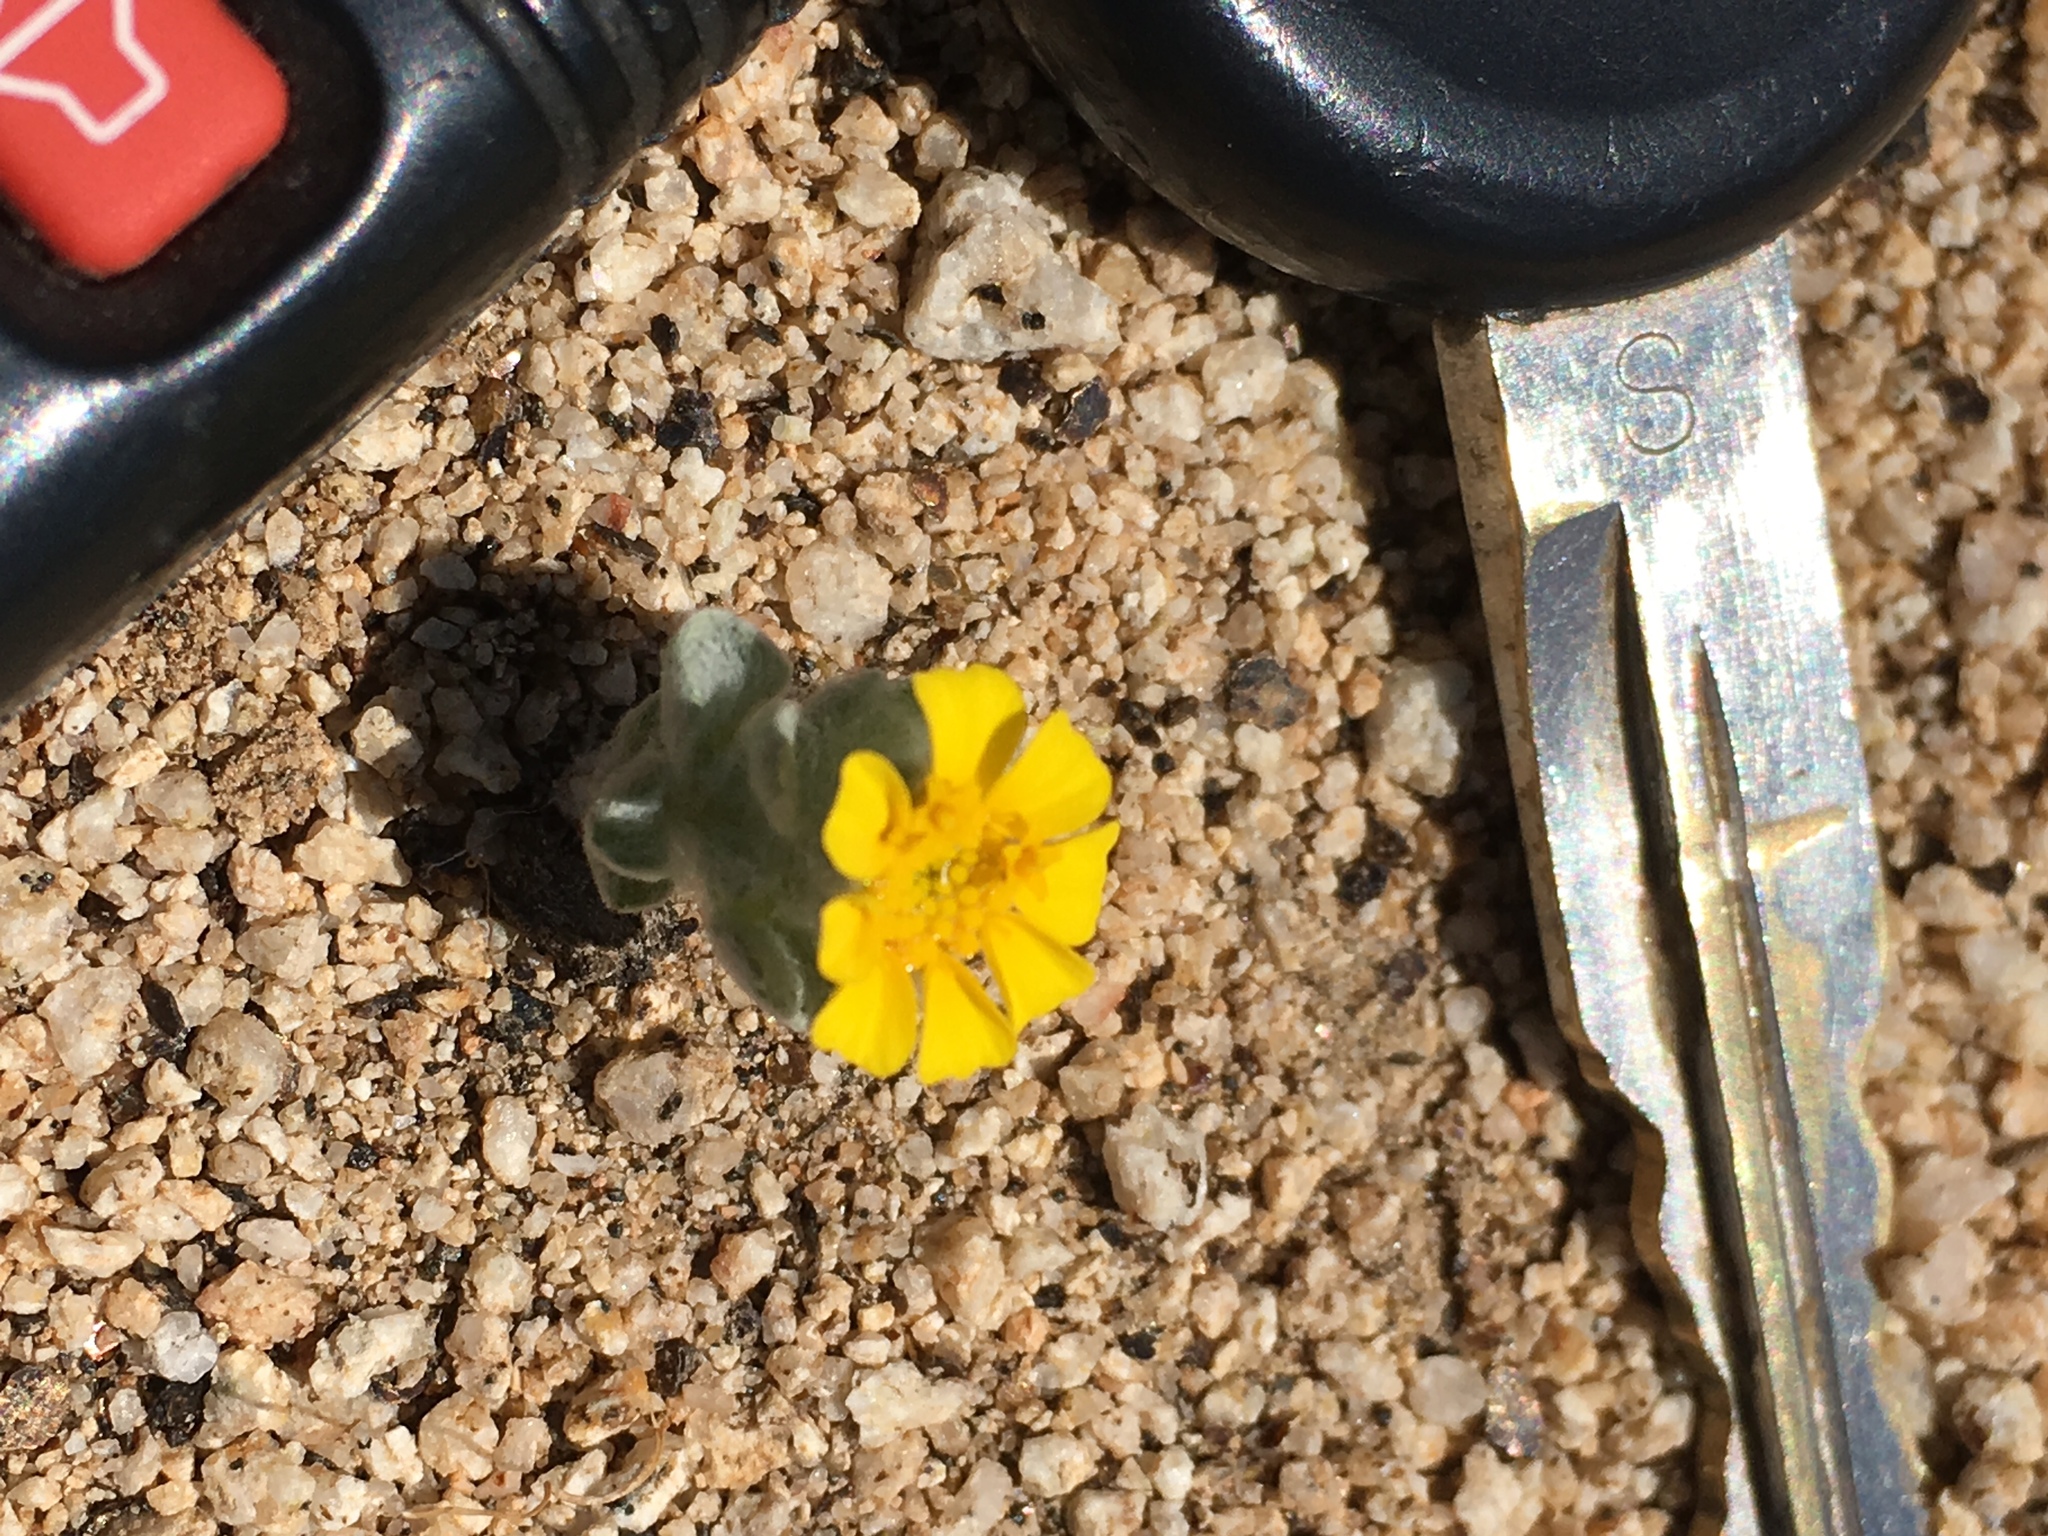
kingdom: Plantae
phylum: Tracheophyta
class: Magnoliopsida
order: Asterales
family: Asteraceae
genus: Eriophyllum
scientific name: Eriophyllum wallacei
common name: Wallace's woolly daisy
